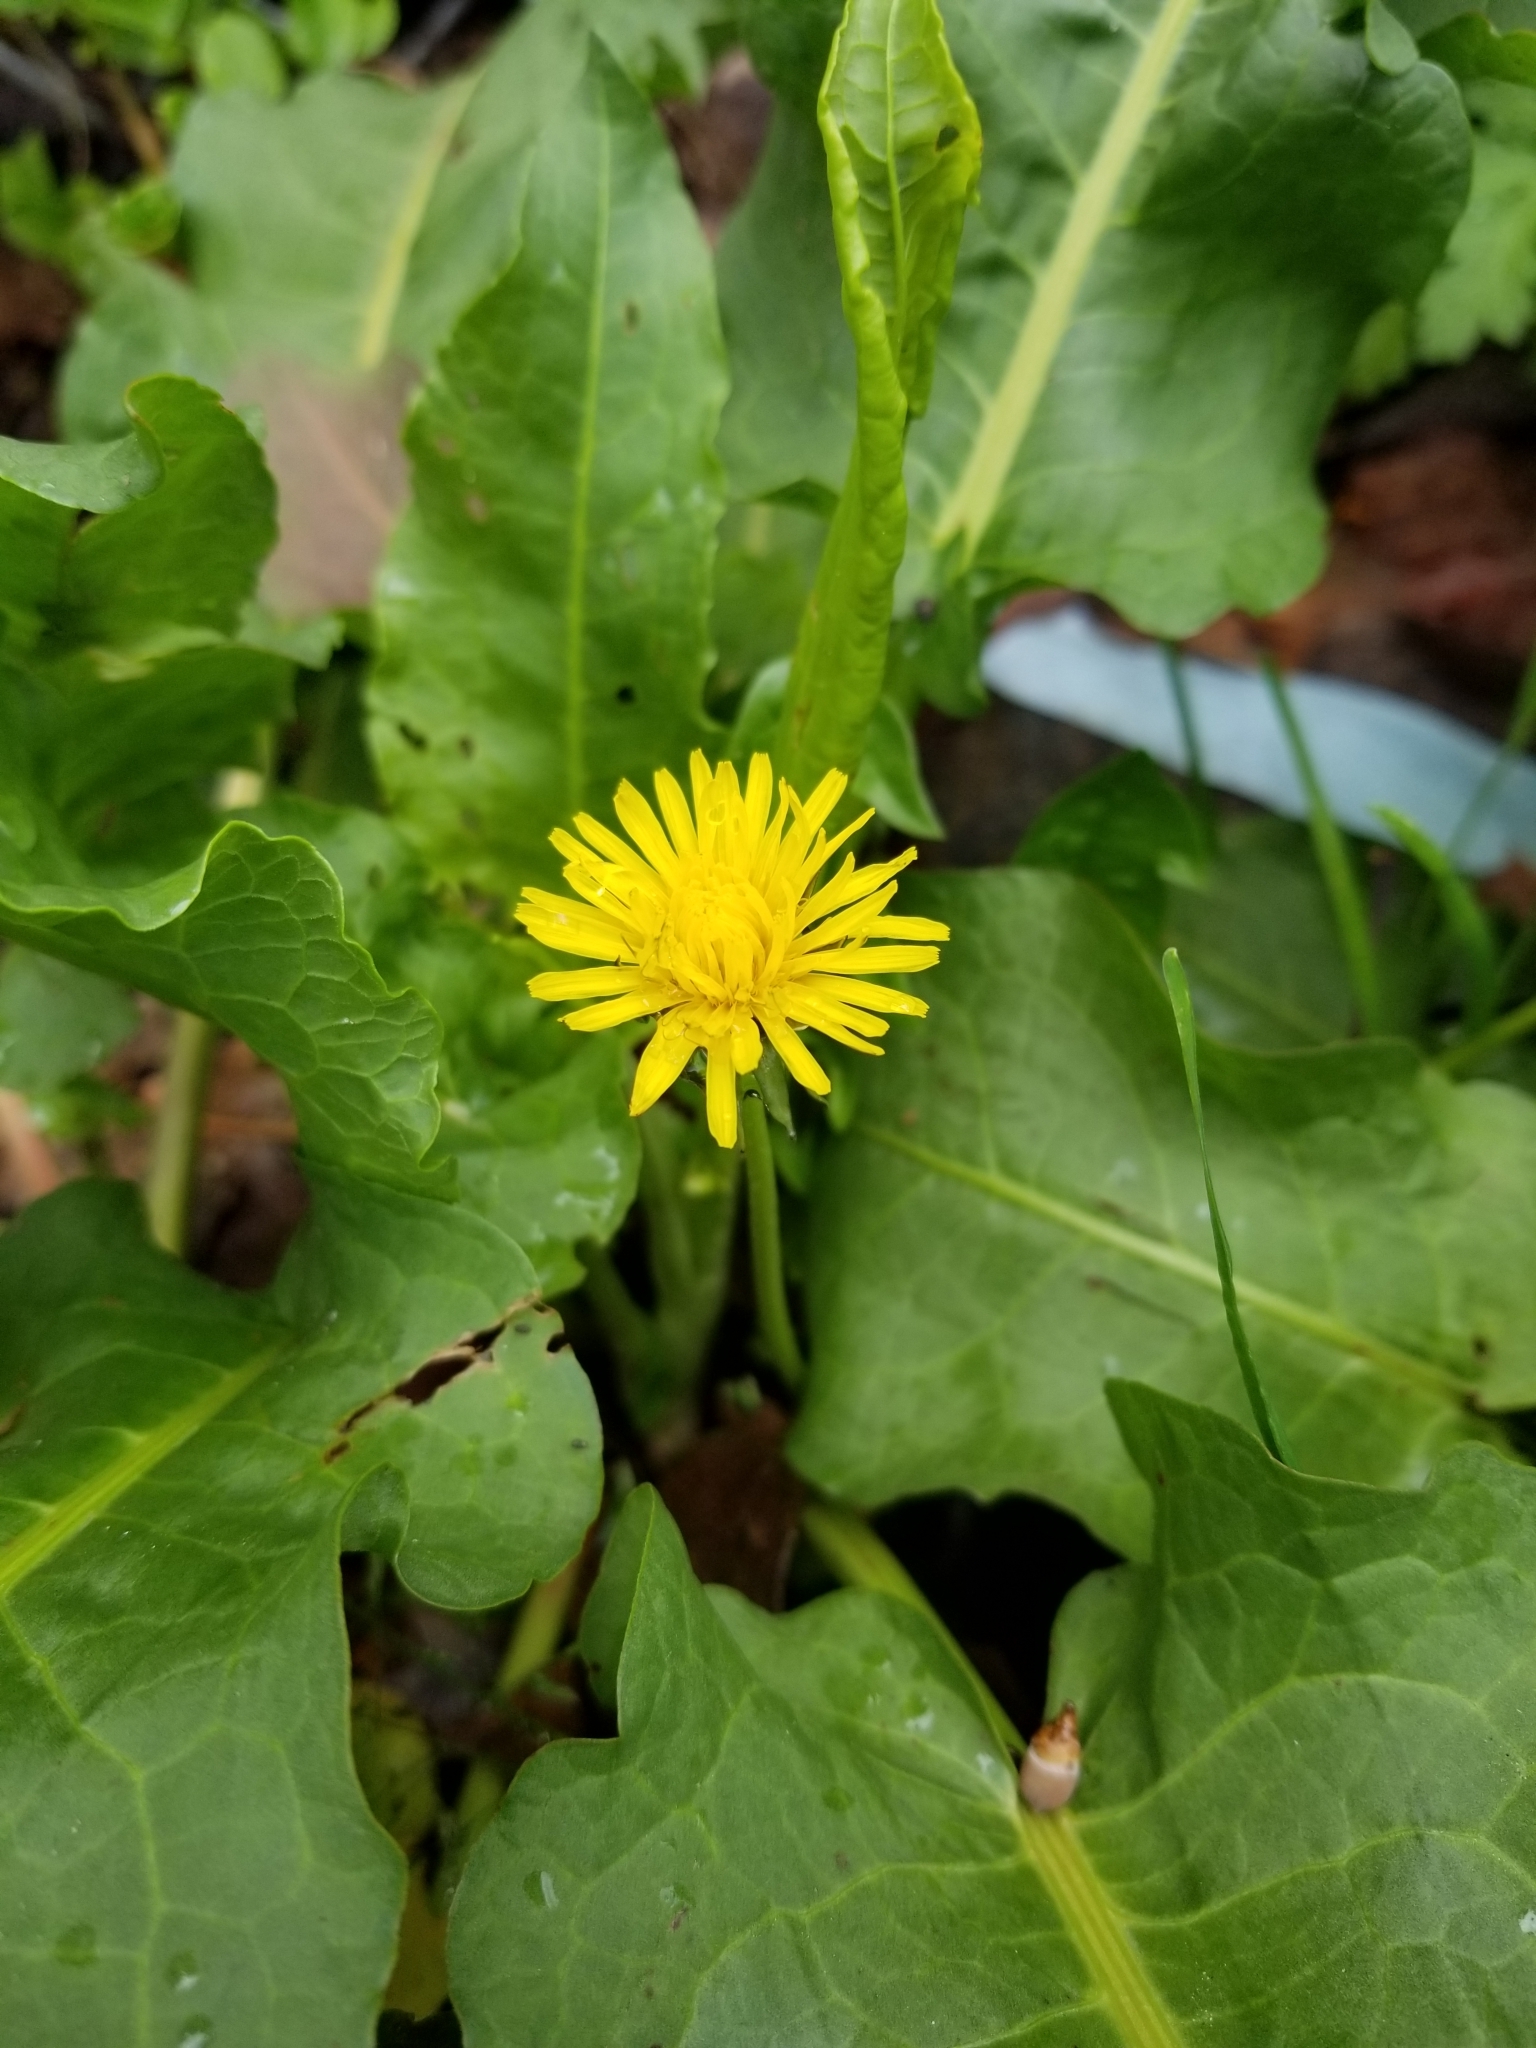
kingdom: Plantae
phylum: Tracheophyta
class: Magnoliopsida
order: Asterales
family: Asteraceae
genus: Taraxacum
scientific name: Taraxacum officinale
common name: Common dandelion
